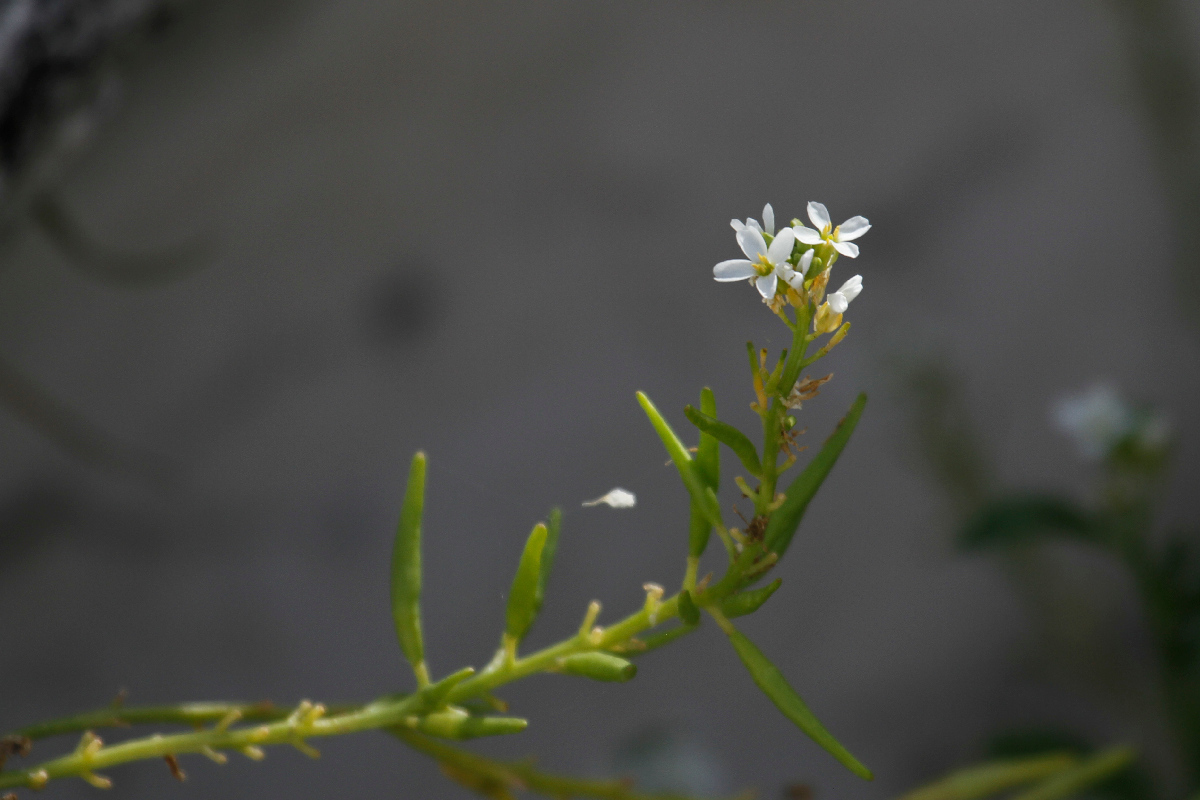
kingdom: Plantae
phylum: Tracheophyta
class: Magnoliopsida
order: Brassicales
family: Brassicaceae
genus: Cakile
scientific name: Cakile lanceolata
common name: Sea rocket
